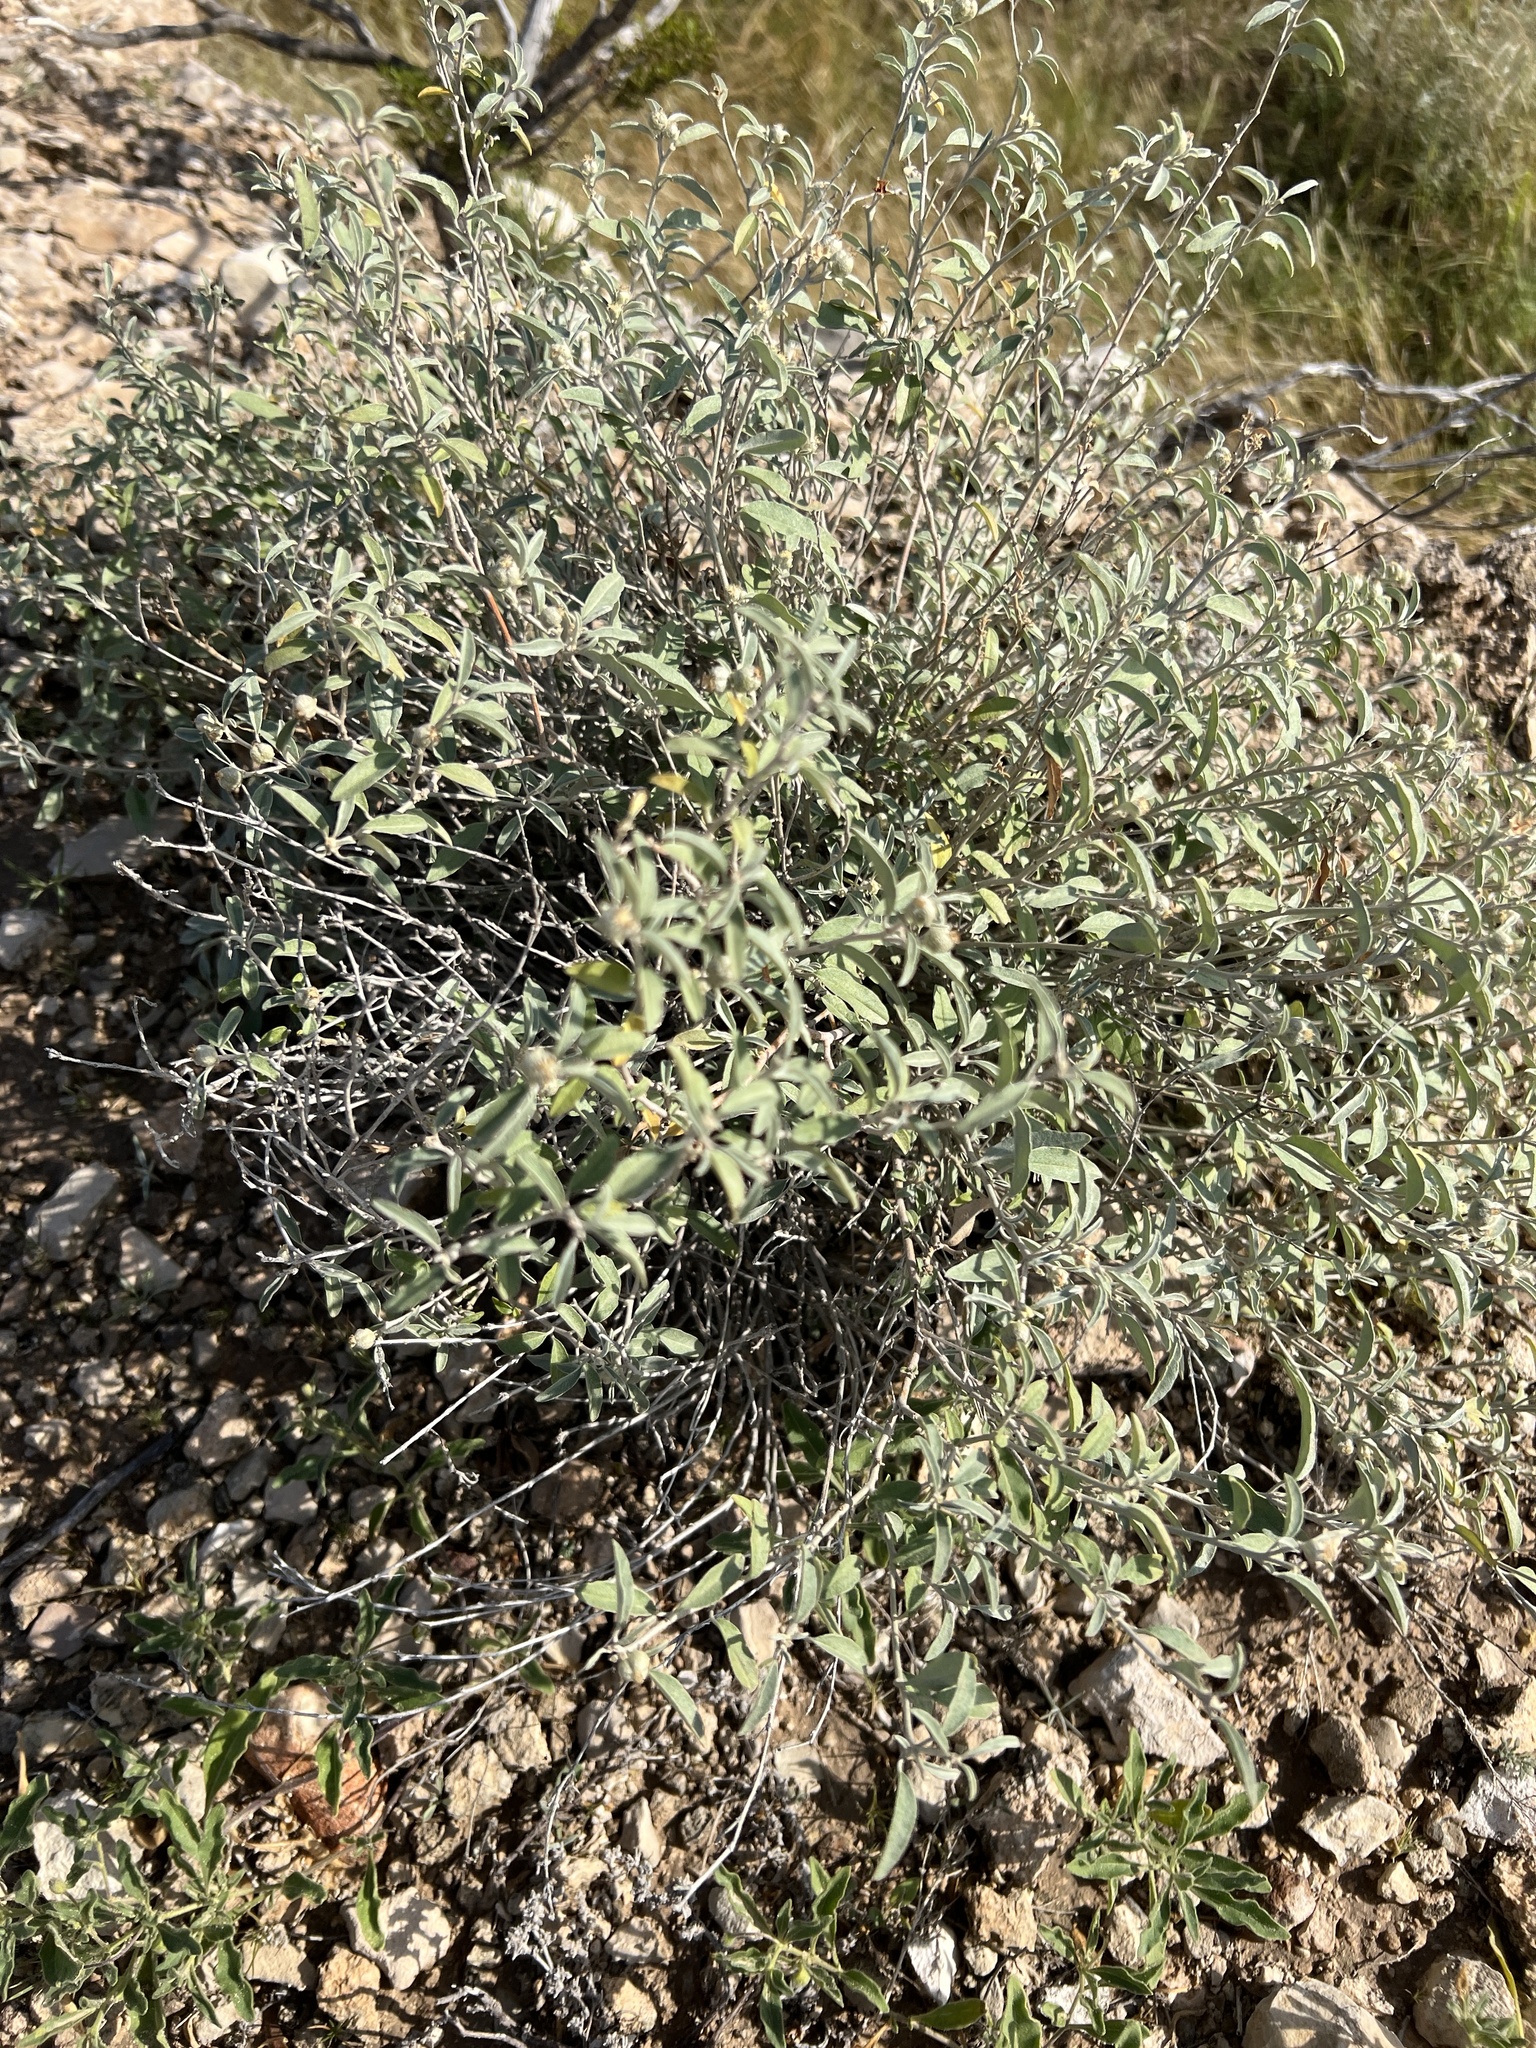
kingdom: Plantae
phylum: Tracheophyta
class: Magnoliopsida
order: Malpighiales
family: Euphorbiaceae
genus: Croton
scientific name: Croton dioicus
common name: Grassland croton
